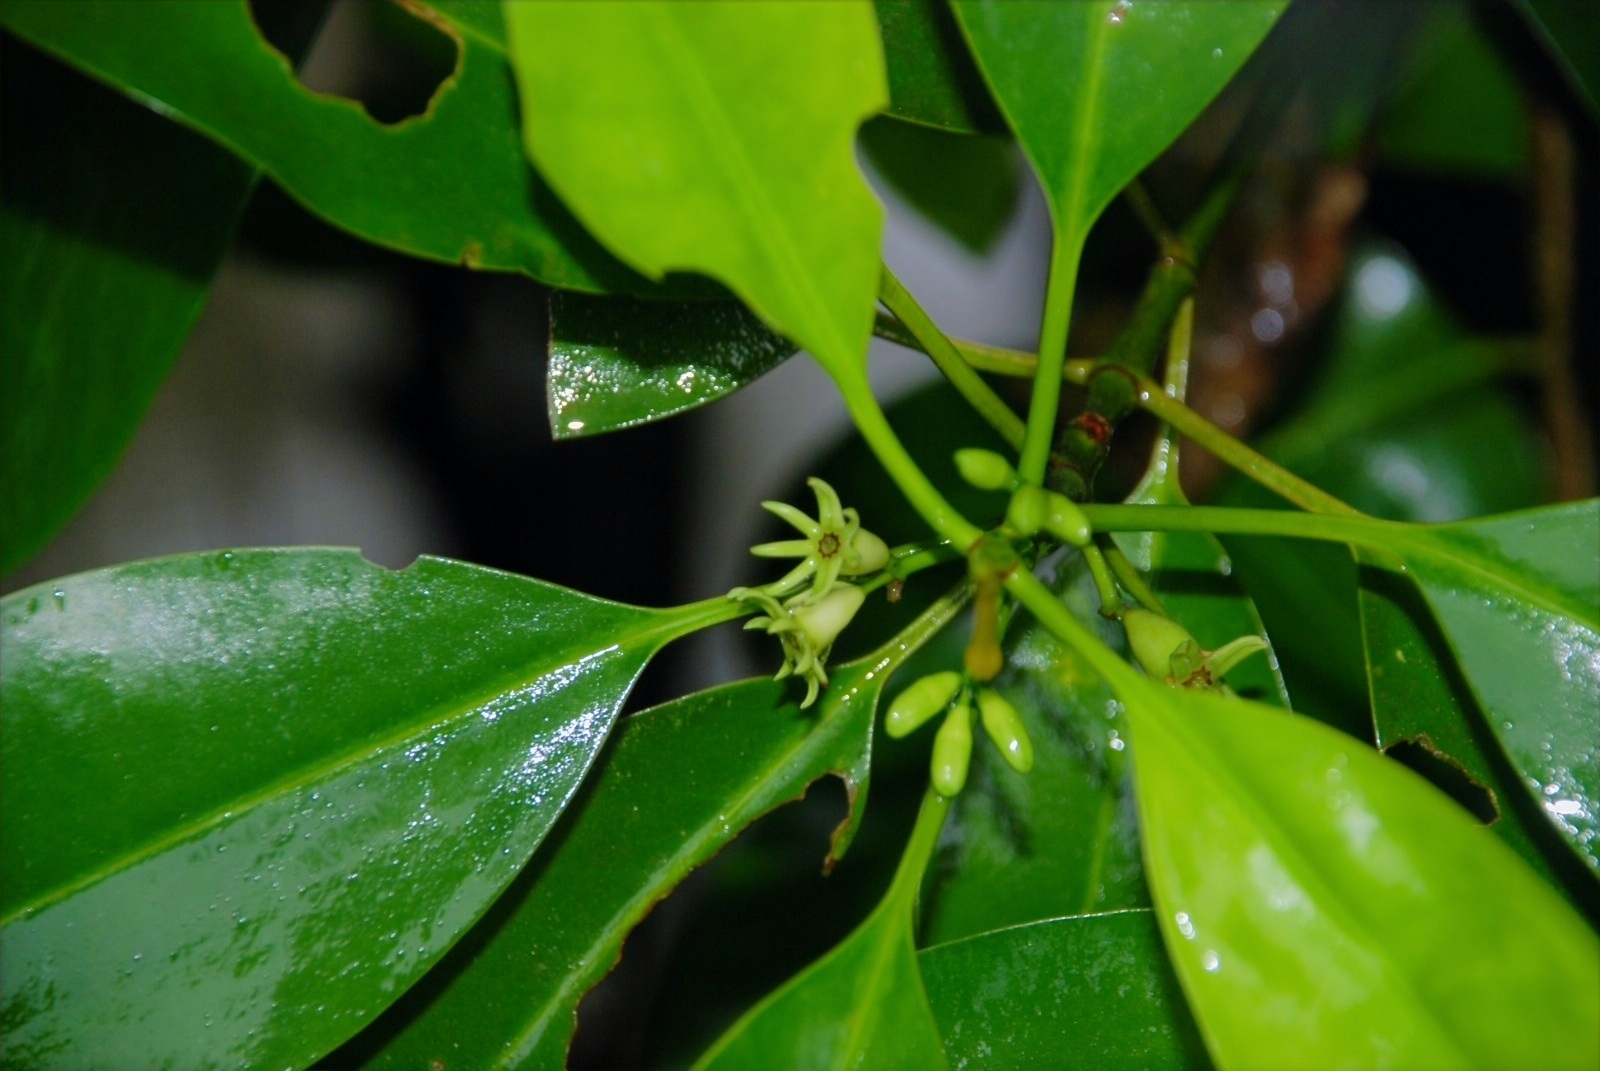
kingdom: Plantae
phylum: Tracheophyta
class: Magnoliopsida
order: Malpighiales
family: Rhizophoraceae
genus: Bruguiera
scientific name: Bruguiera cylindrica
